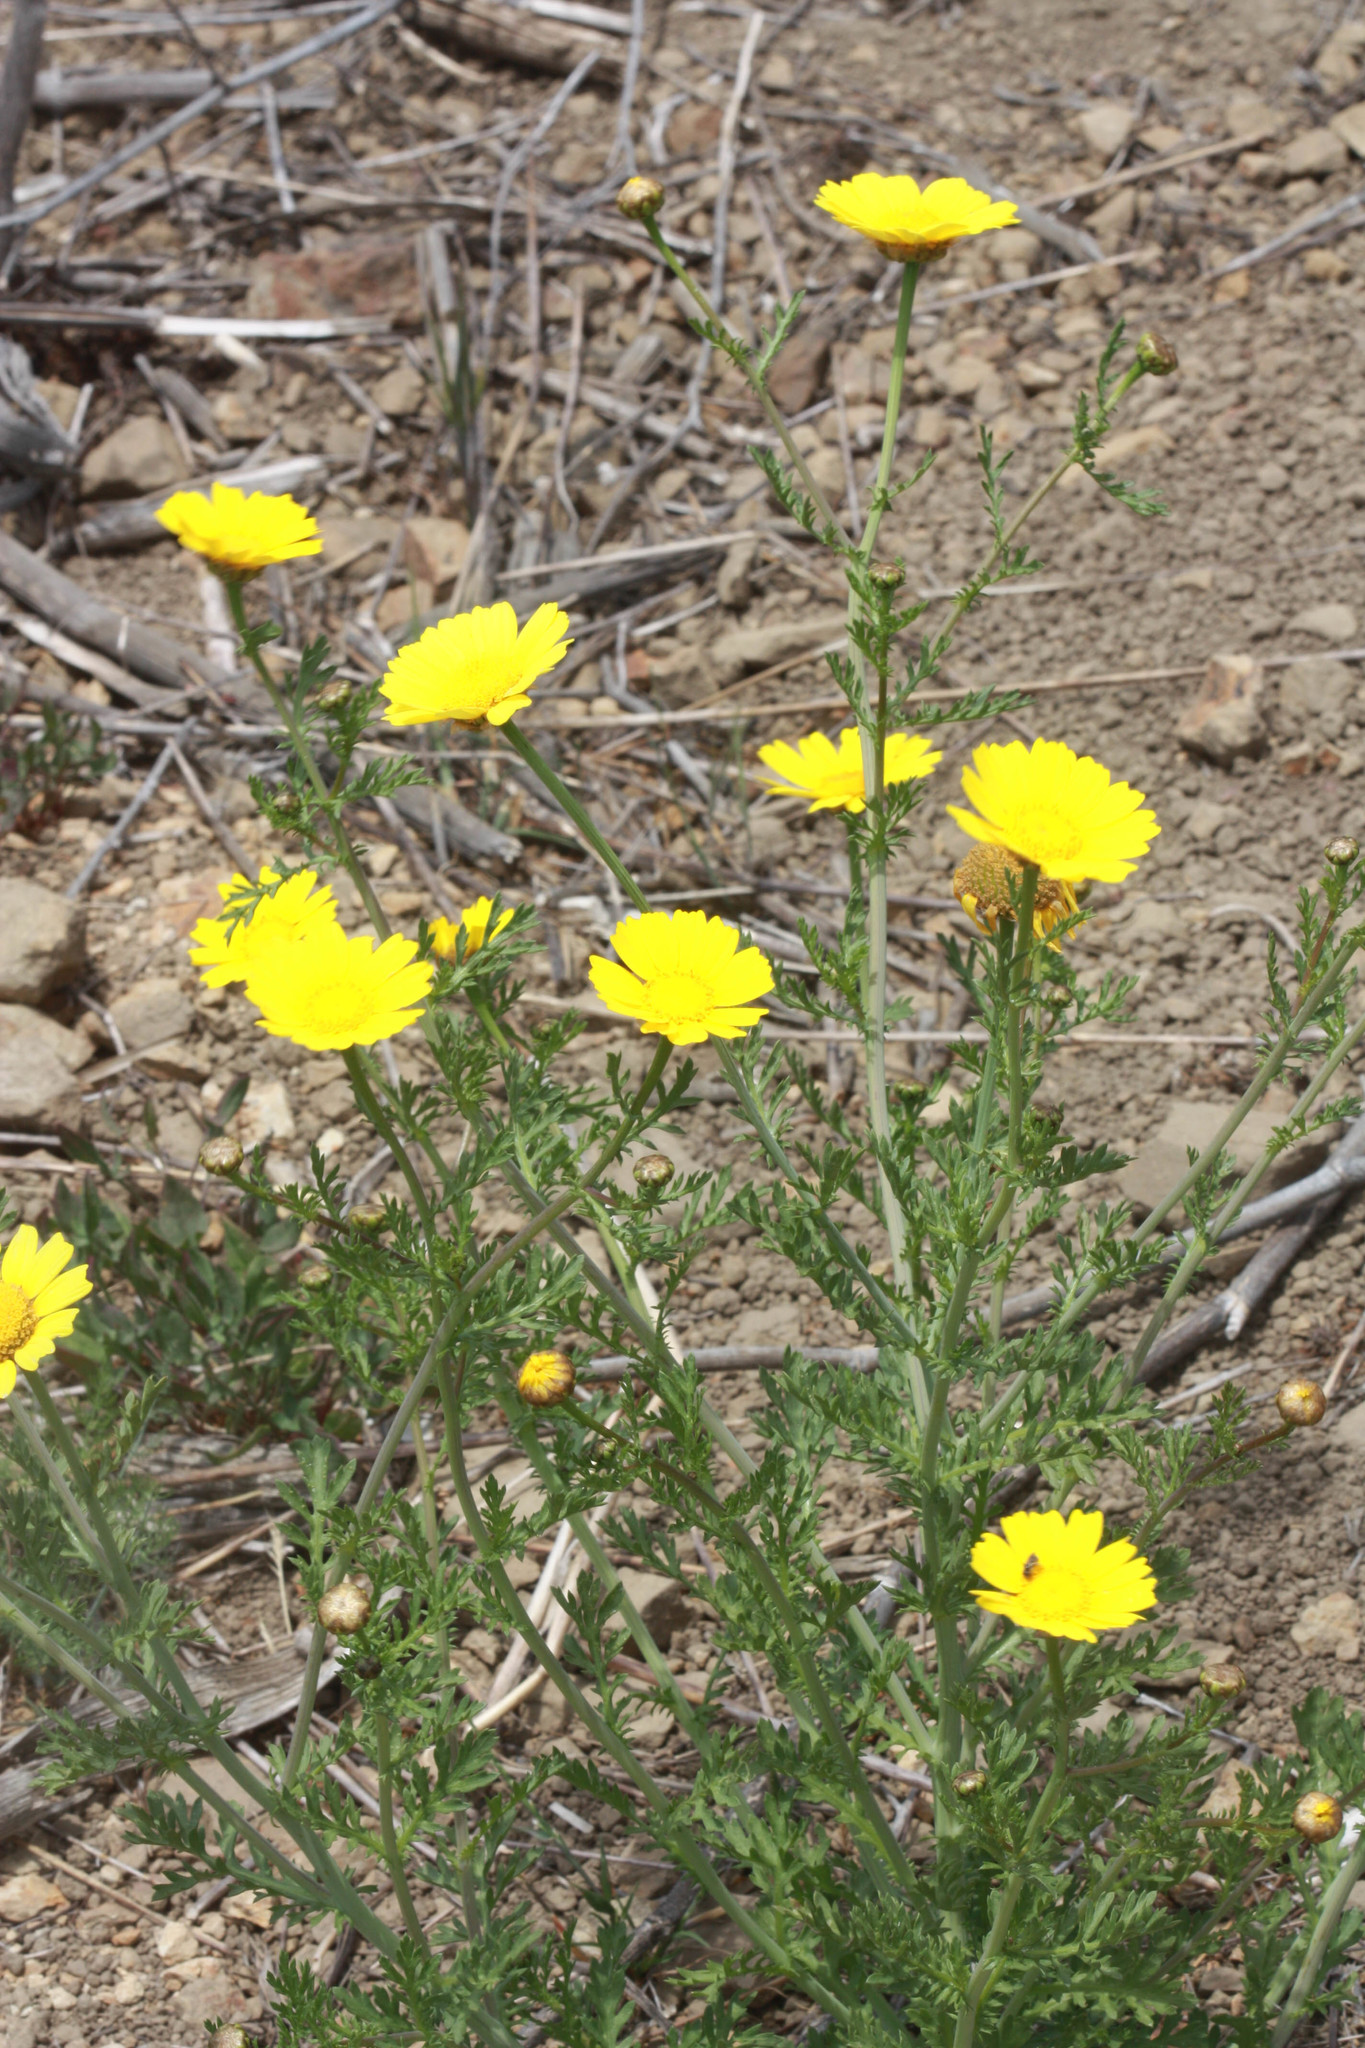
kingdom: Plantae
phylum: Tracheophyta
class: Magnoliopsida
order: Asterales
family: Asteraceae
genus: Glebionis
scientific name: Glebionis coronaria
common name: Crowndaisy
